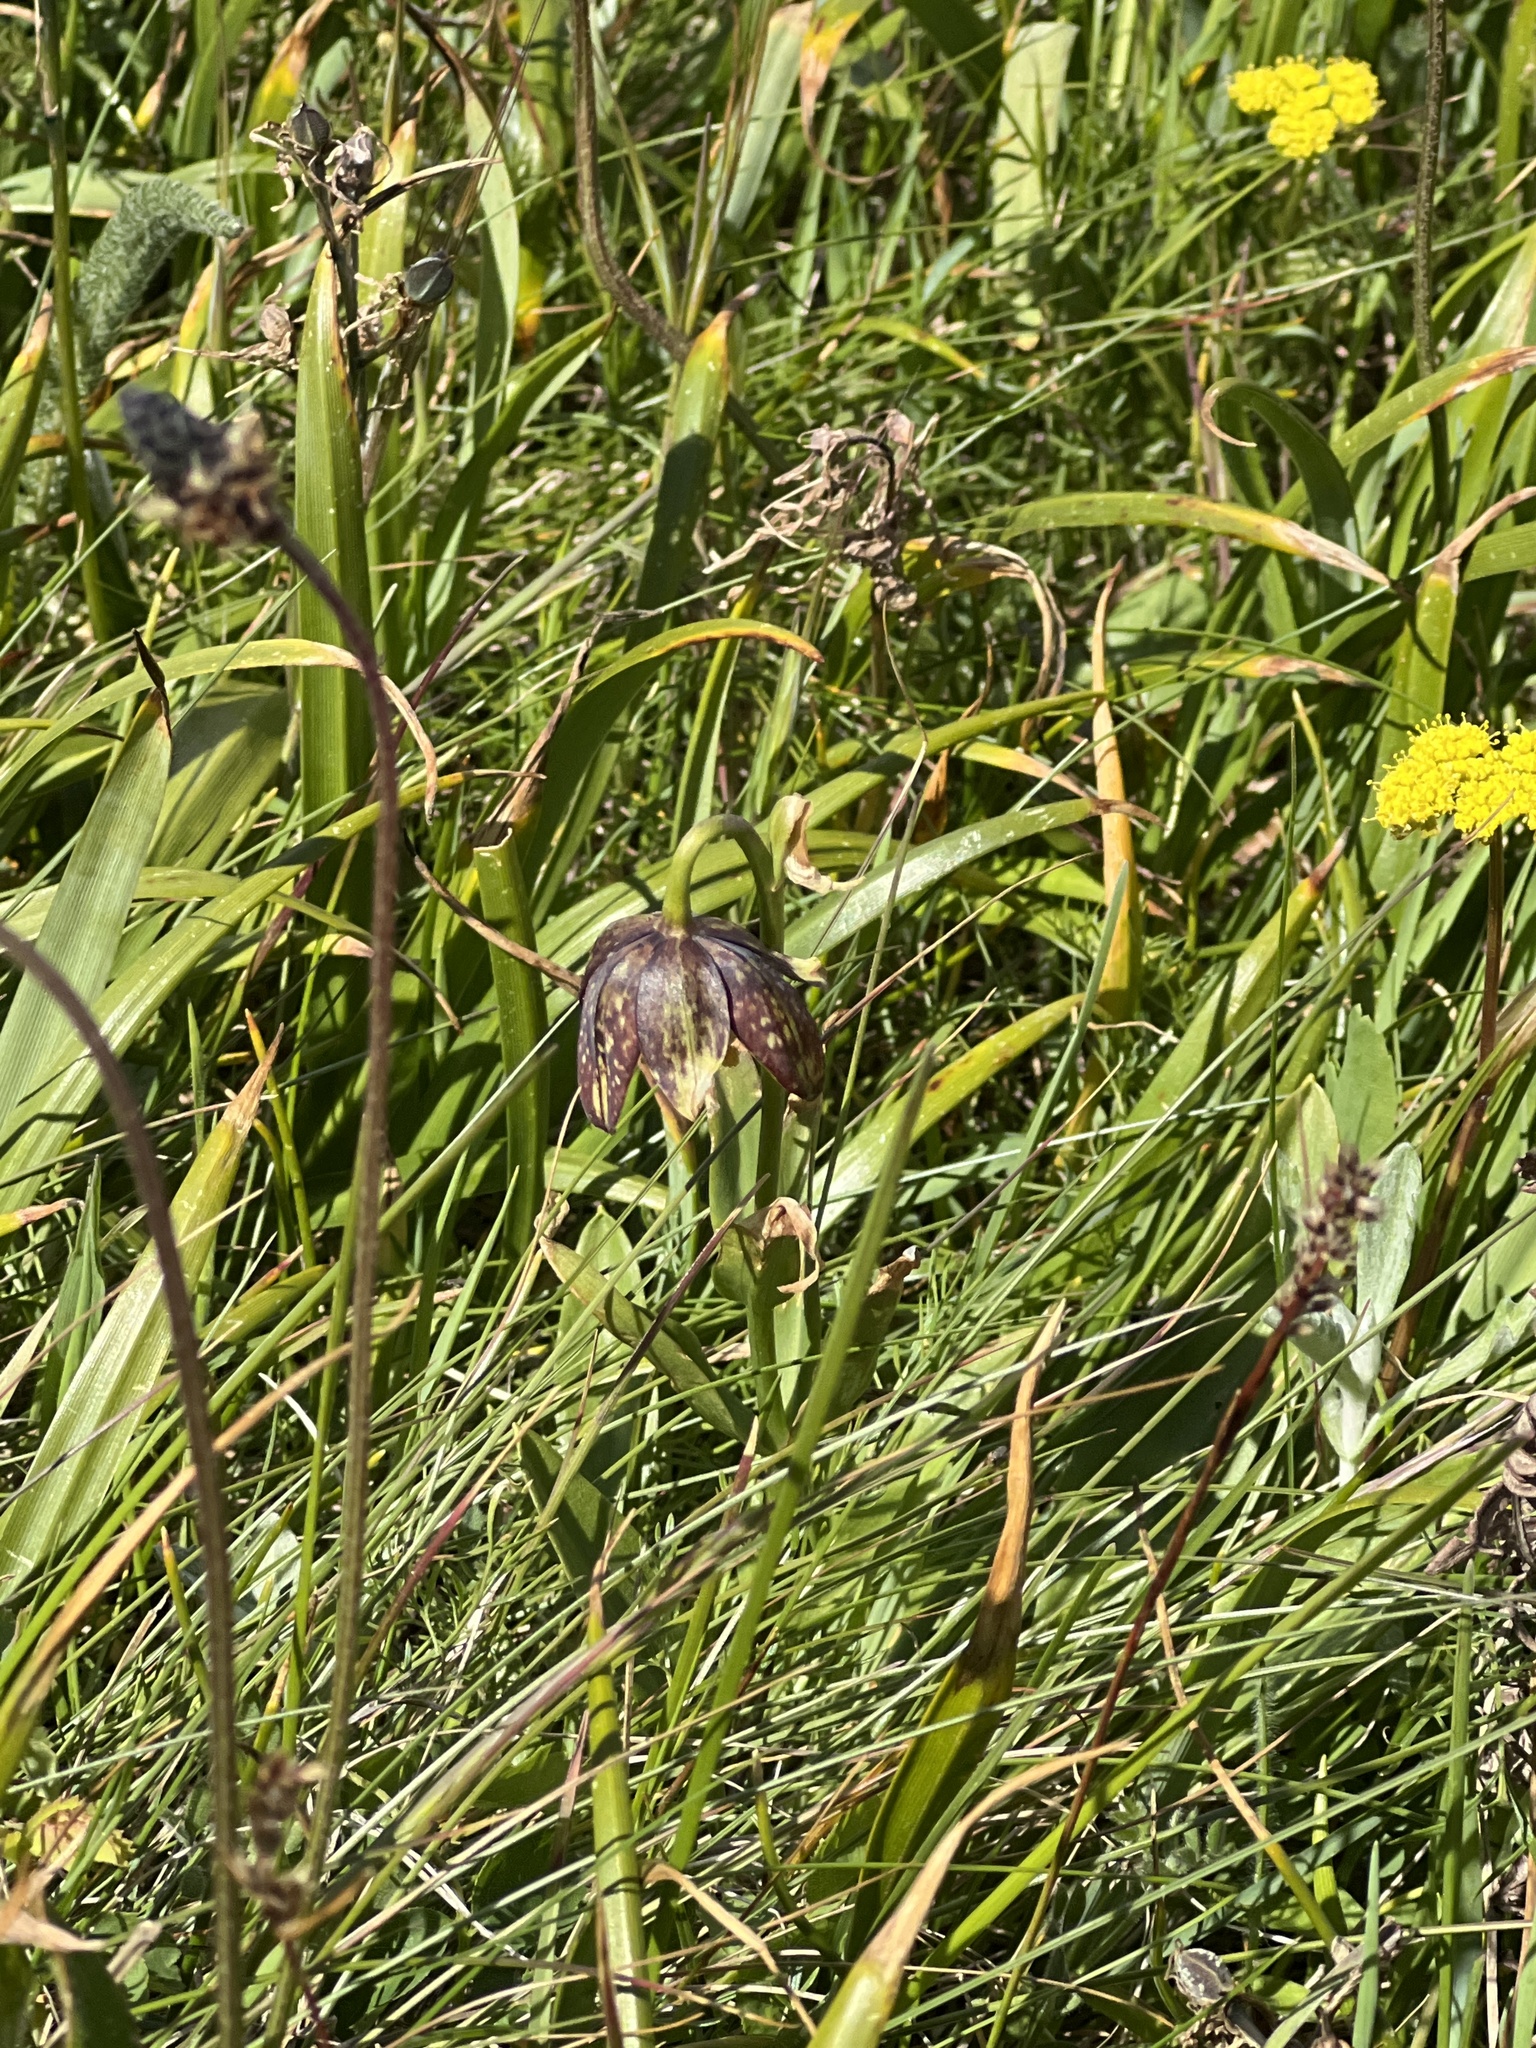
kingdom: Plantae
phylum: Tracheophyta
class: Liliopsida
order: Liliales
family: Liliaceae
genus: Fritillaria
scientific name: Fritillaria affinis
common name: Ojai fritillary
